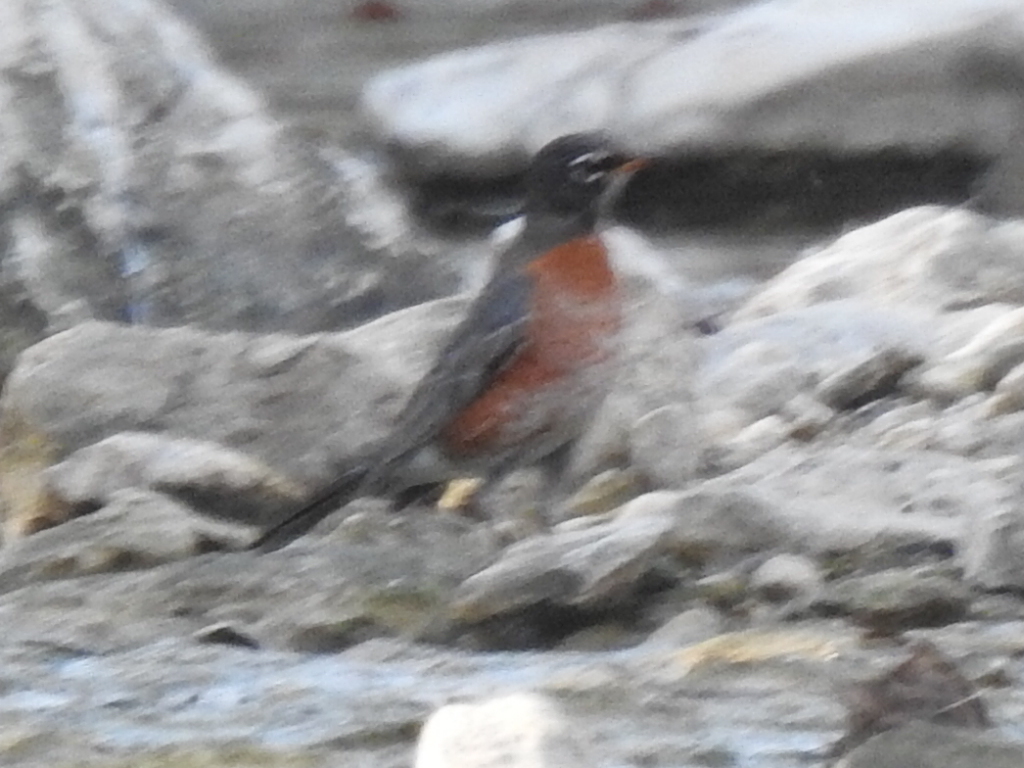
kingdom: Animalia
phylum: Chordata
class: Aves
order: Passeriformes
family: Turdidae
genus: Turdus
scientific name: Turdus migratorius
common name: American robin
